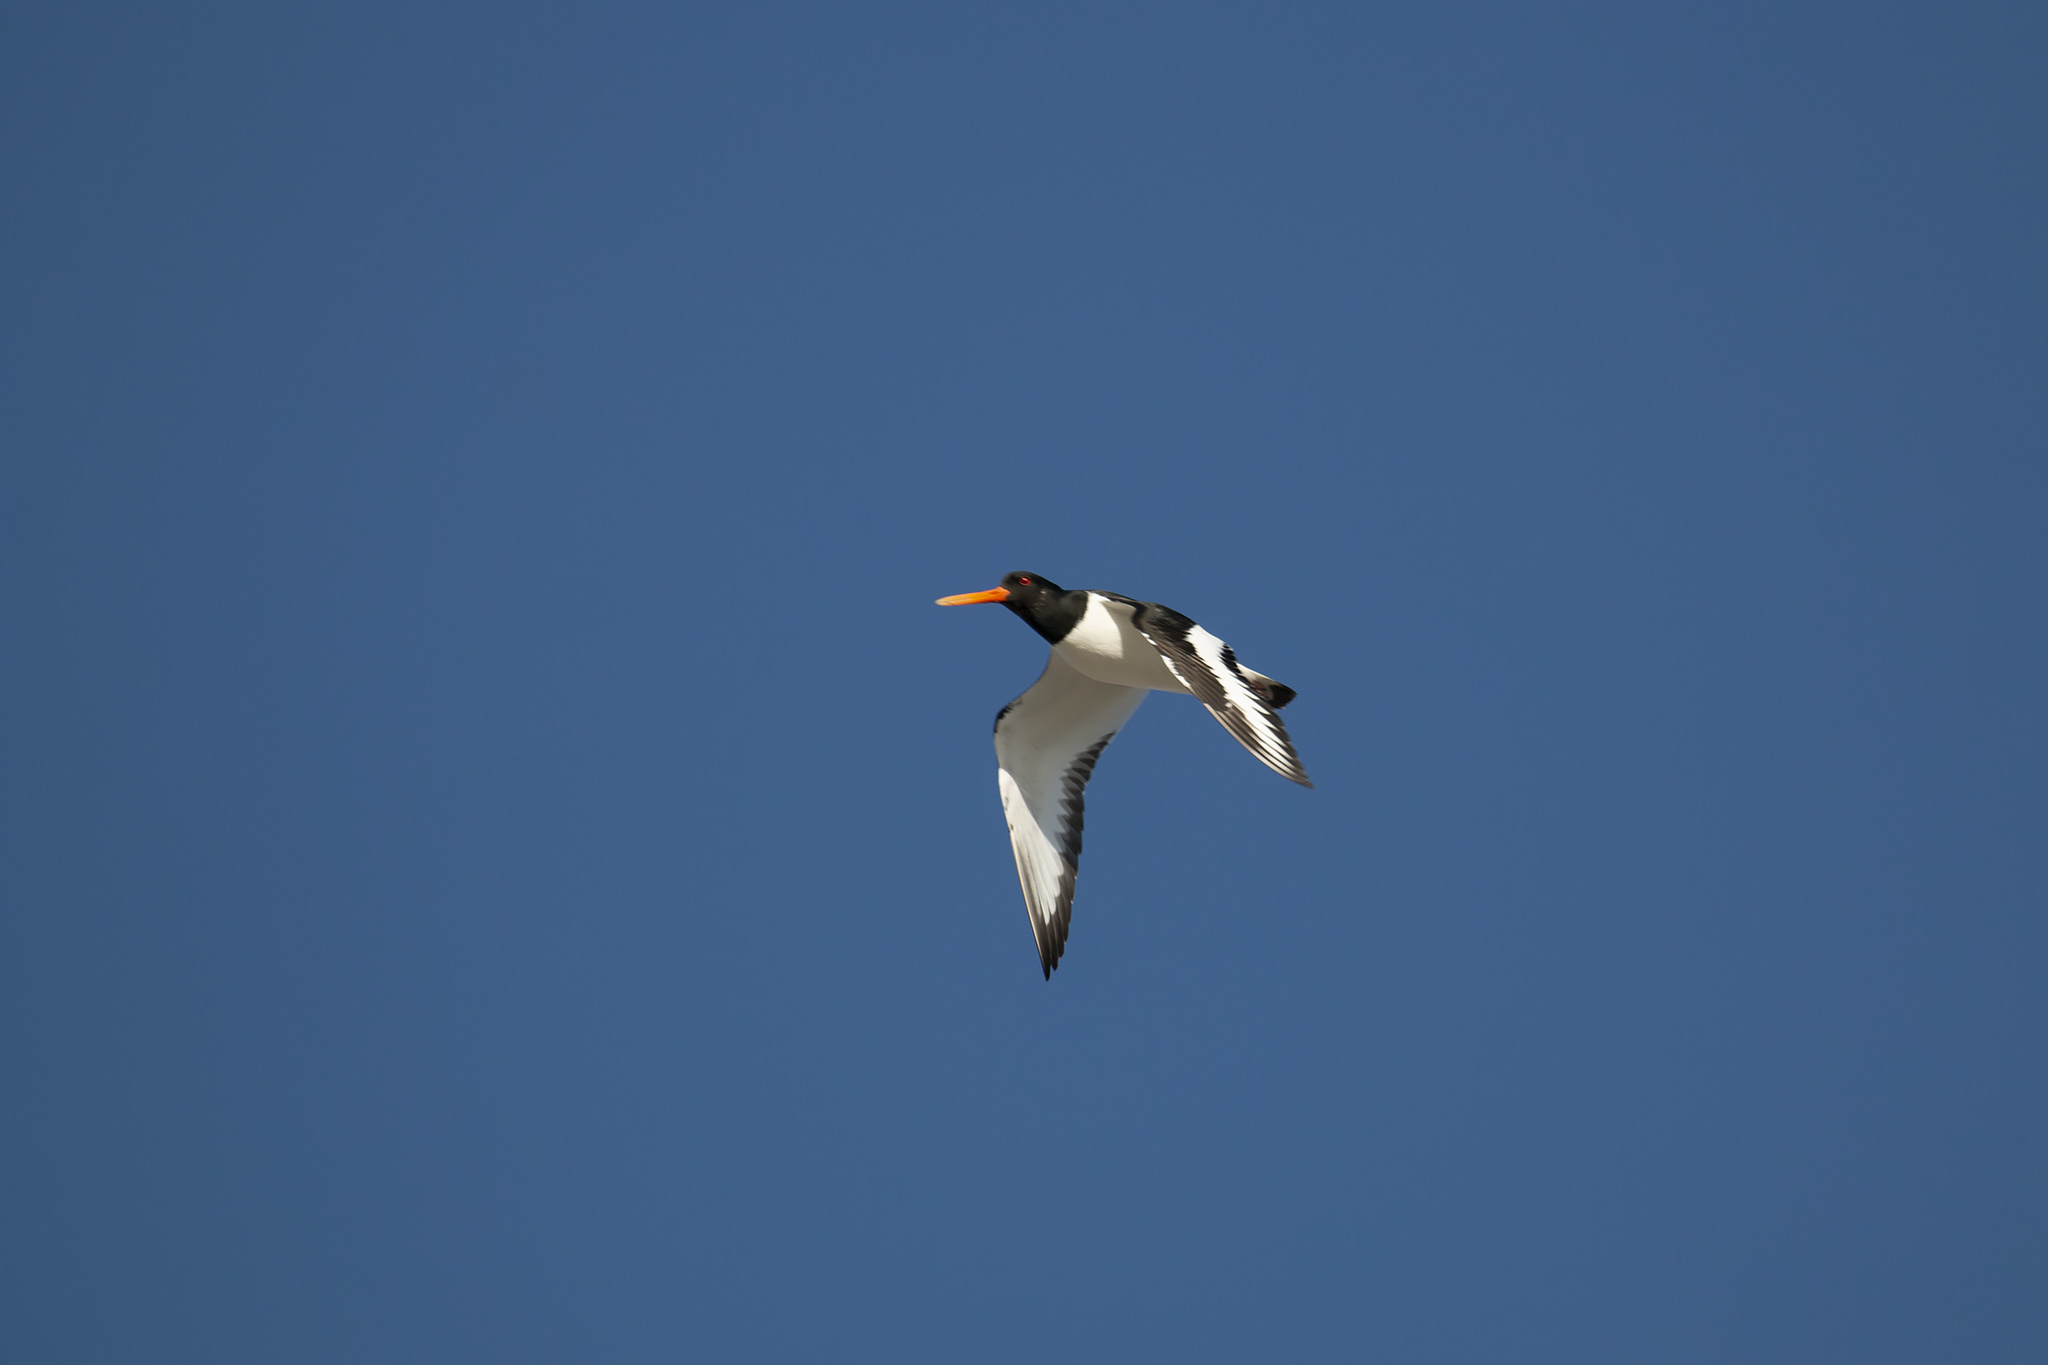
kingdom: Animalia
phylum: Chordata
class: Aves
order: Charadriiformes
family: Haematopodidae
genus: Haematopus
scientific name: Haematopus ostralegus
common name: Eurasian oystercatcher
